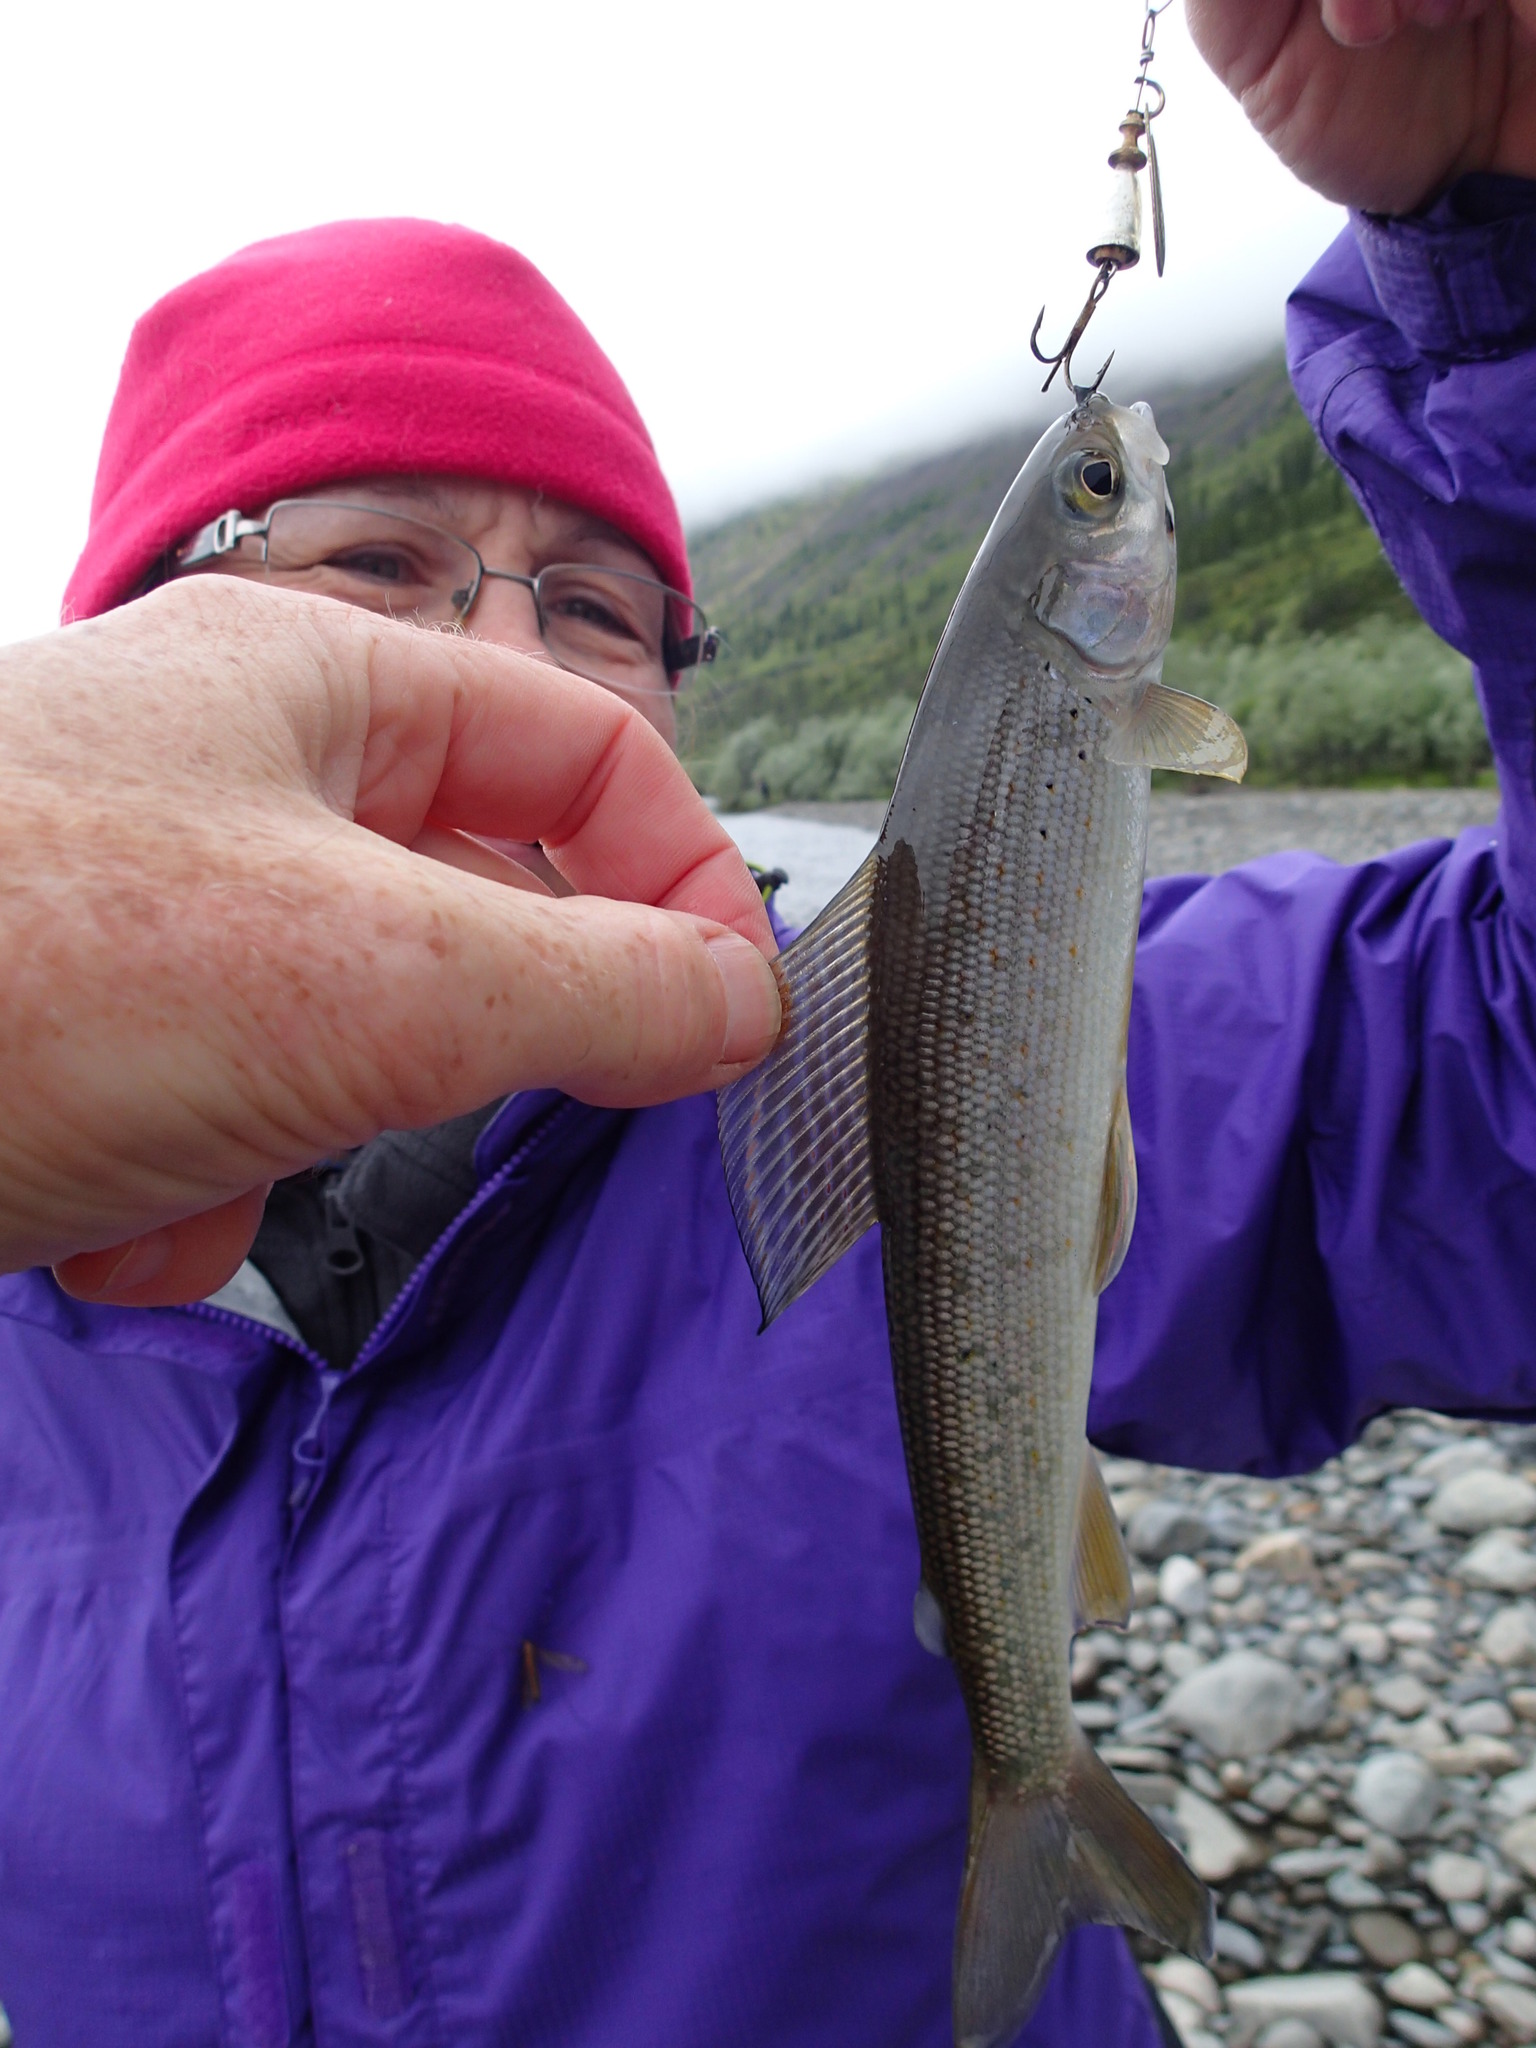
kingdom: Animalia
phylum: Chordata
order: Salmoniformes
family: Salmonidae
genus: Thymallus
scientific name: Thymallus arcticus
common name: Arctic grayling
